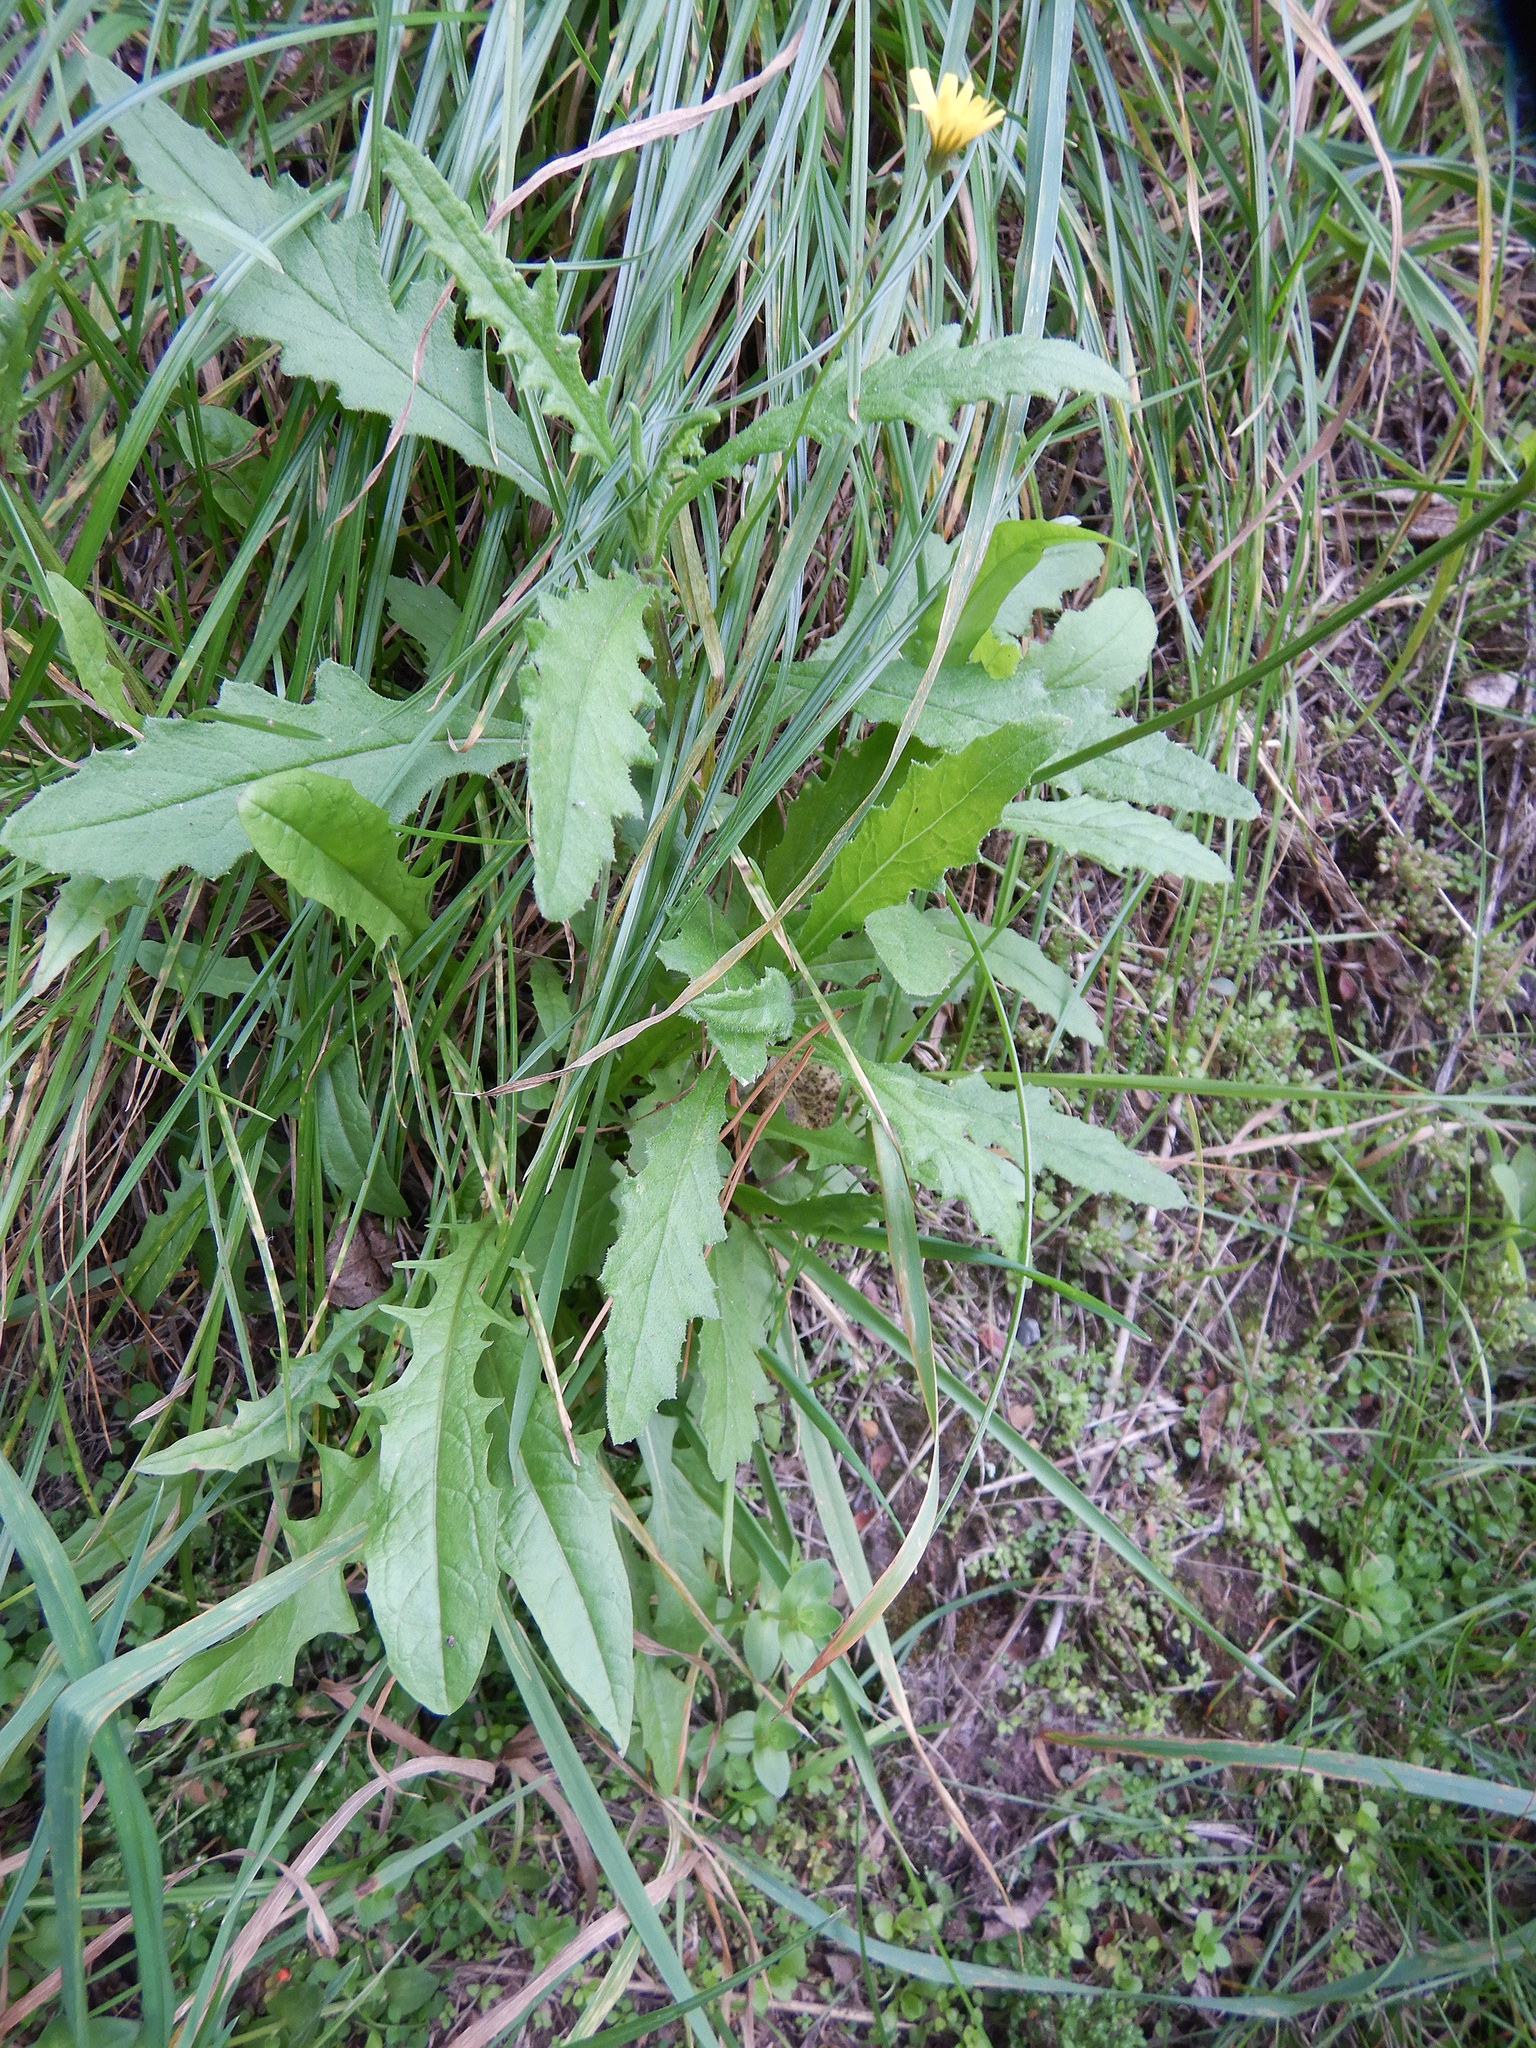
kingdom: Plantae
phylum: Tracheophyta
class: Magnoliopsida
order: Asterales
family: Asteraceae
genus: Crepis
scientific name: Crepis capillaris
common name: Smooth hawksbeard
